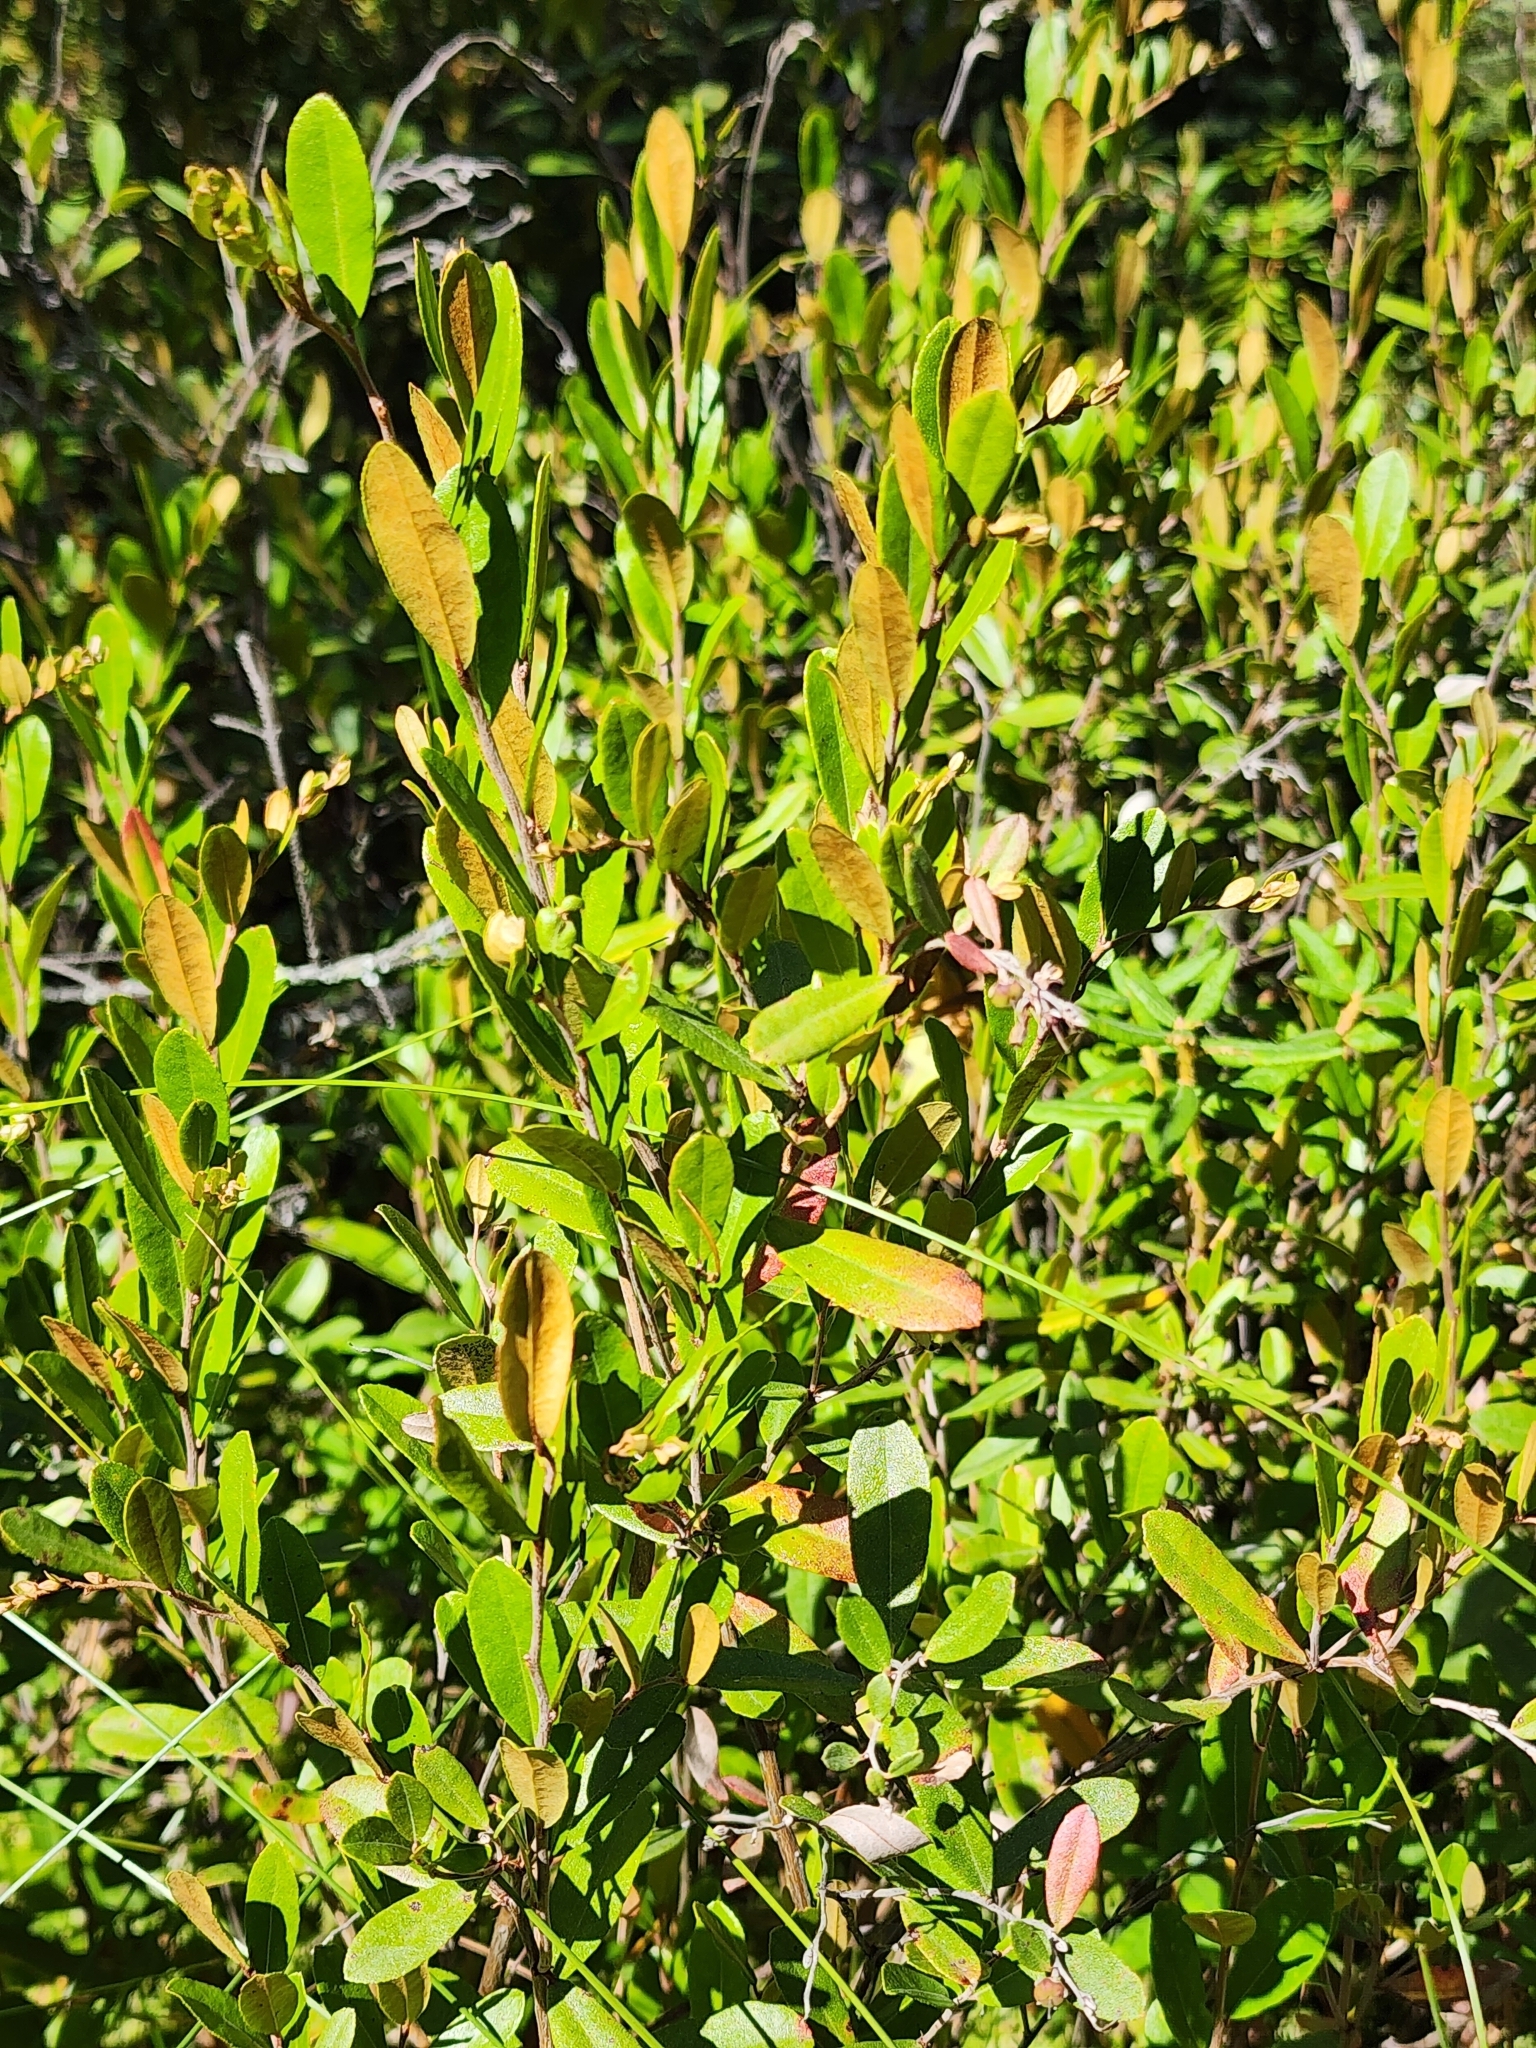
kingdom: Plantae
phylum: Tracheophyta
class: Magnoliopsida
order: Ericales
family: Ericaceae
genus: Chamaedaphne
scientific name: Chamaedaphne calyculata
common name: Leatherleaf
